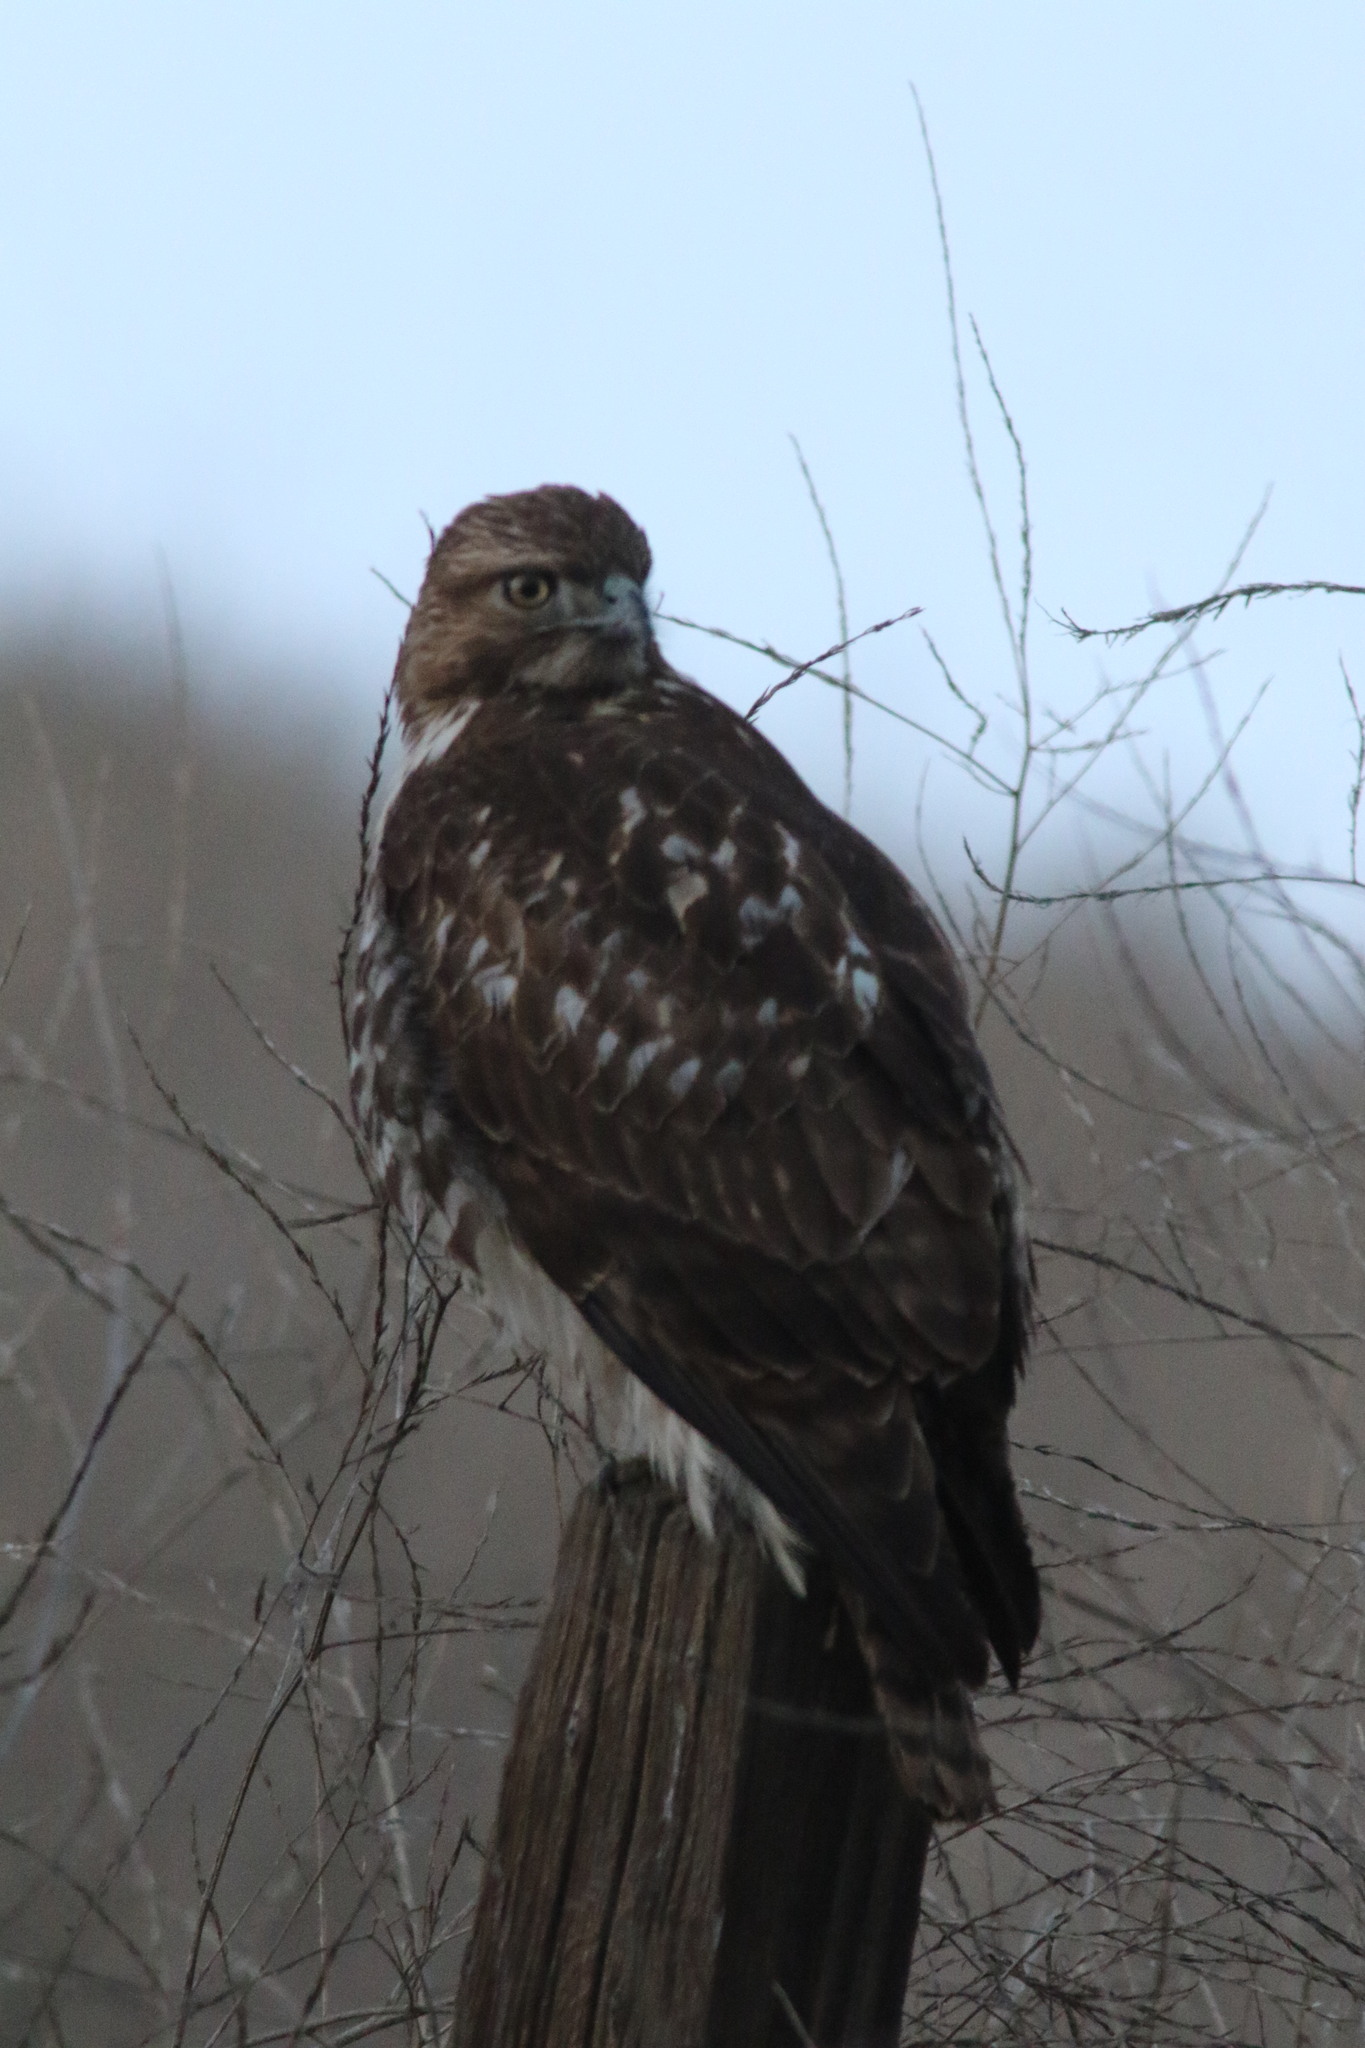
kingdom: Animalia
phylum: Chordata
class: Aves
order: Accipitriformes
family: Accipitridae
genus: Buteo
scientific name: Buteo jamaicensis
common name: Red-tailed hawk
